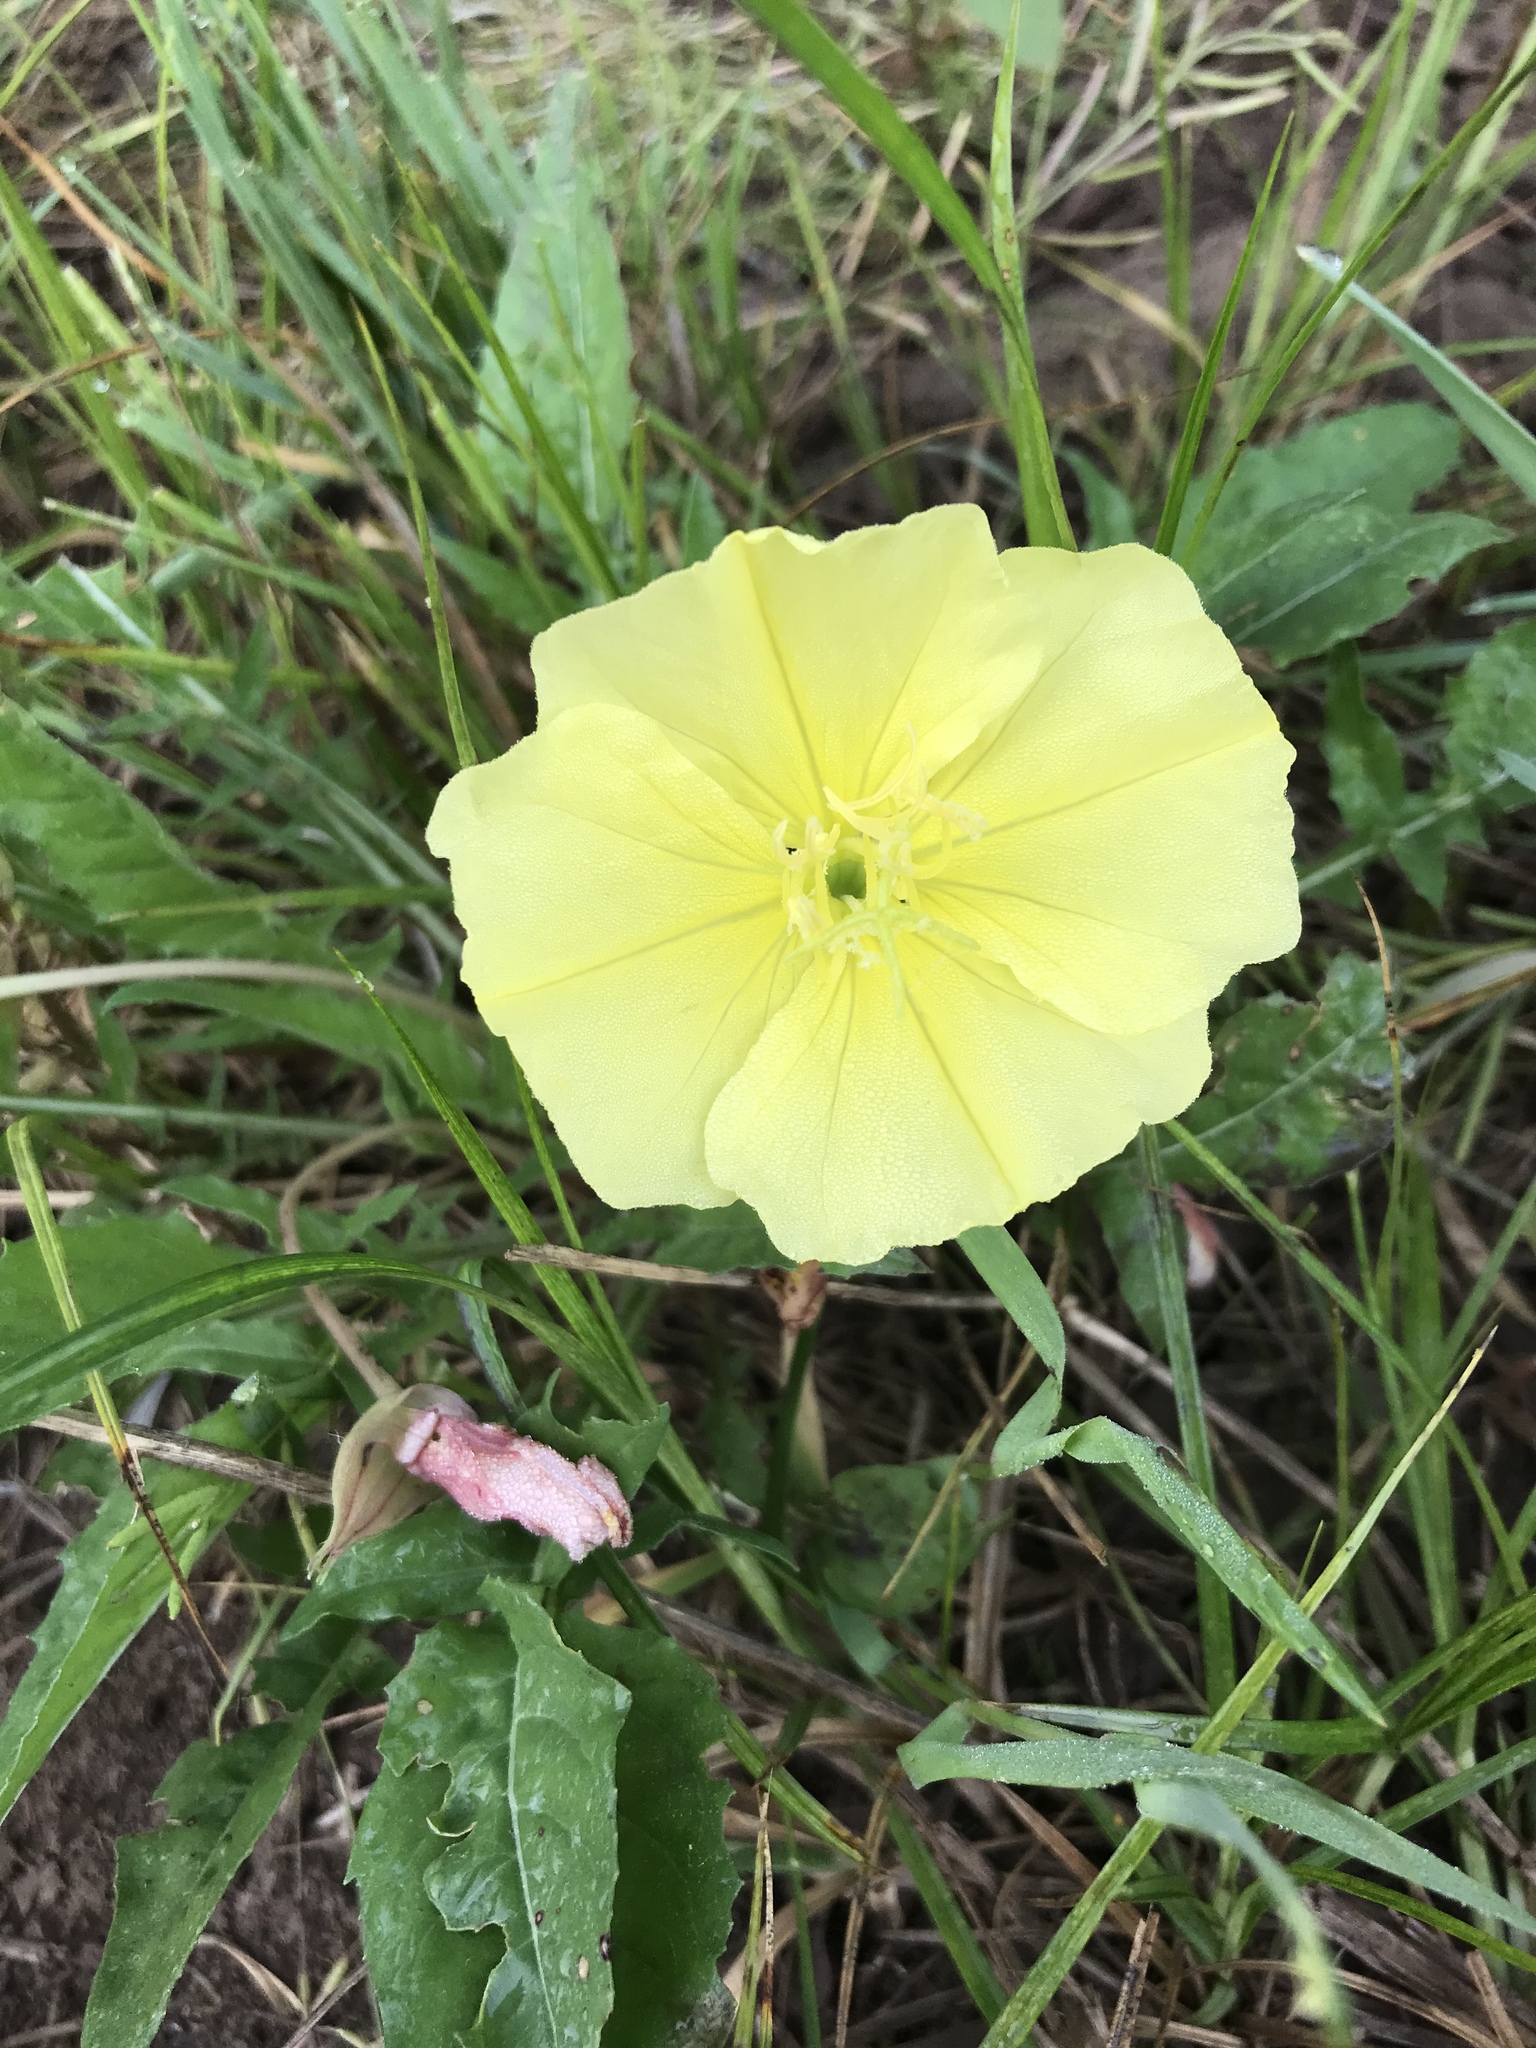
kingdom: Plantae
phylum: Tracheophyta
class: Magnoliopsida
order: Myrtales
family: Onagraceae
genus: Oenothera
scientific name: Oenothera triloba
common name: Sessile evening-primrose
